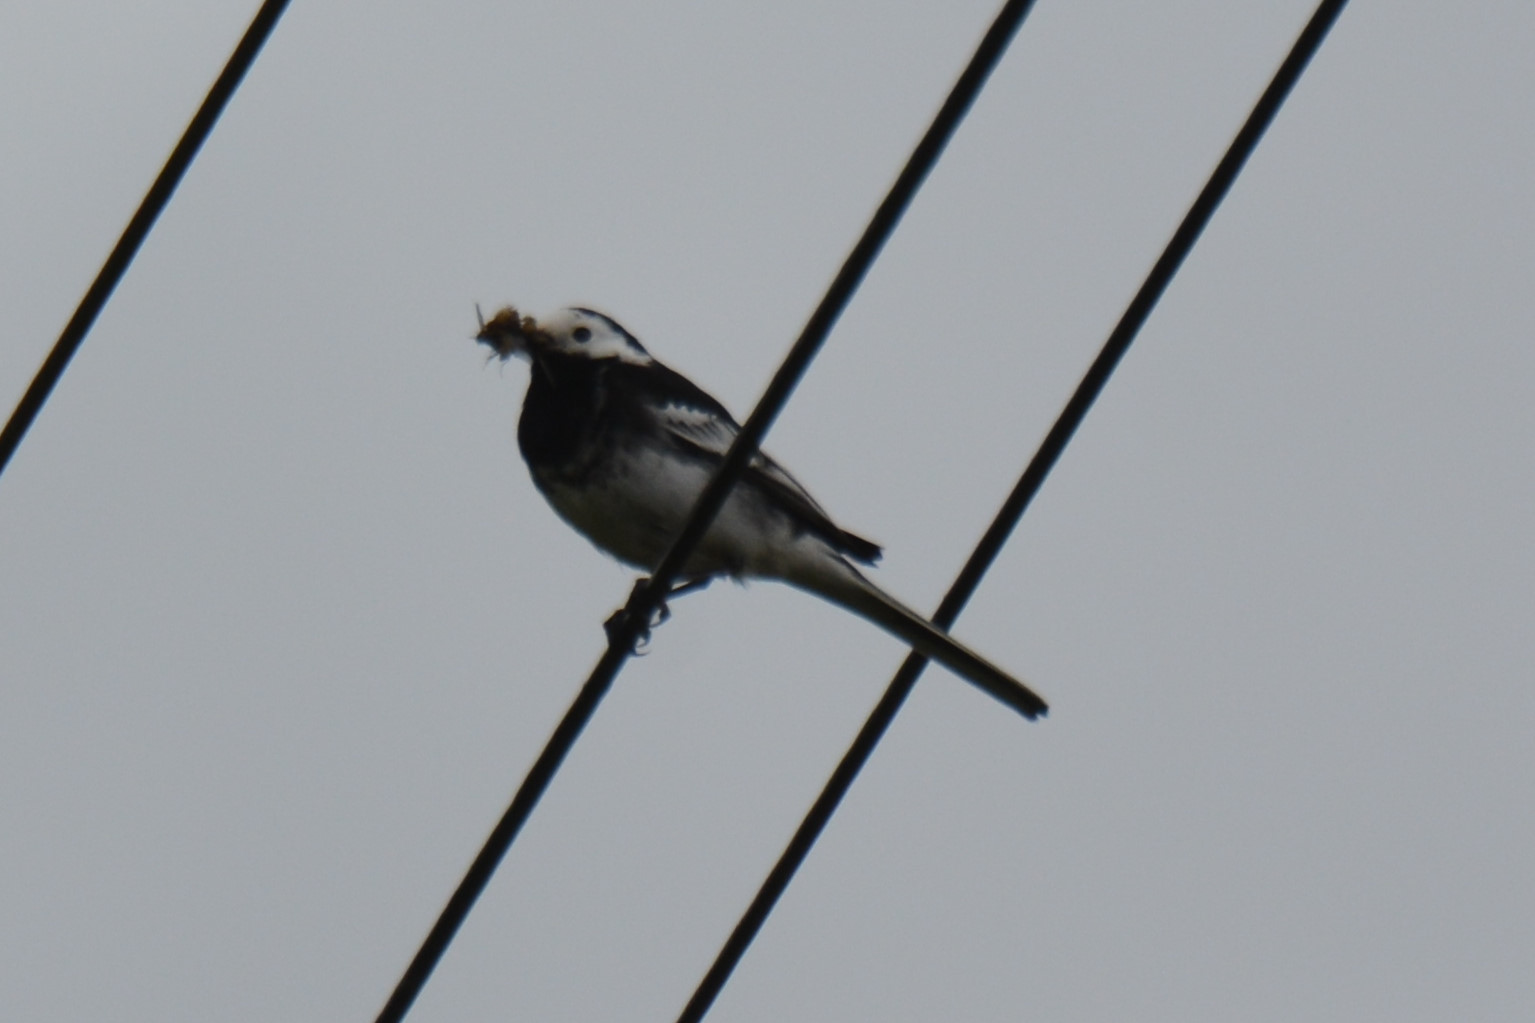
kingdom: Animalia
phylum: Chordata
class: Aves
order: Passeriformes
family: Motacillidae
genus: Motacilla
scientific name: Motacilla alba
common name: White wagtail
